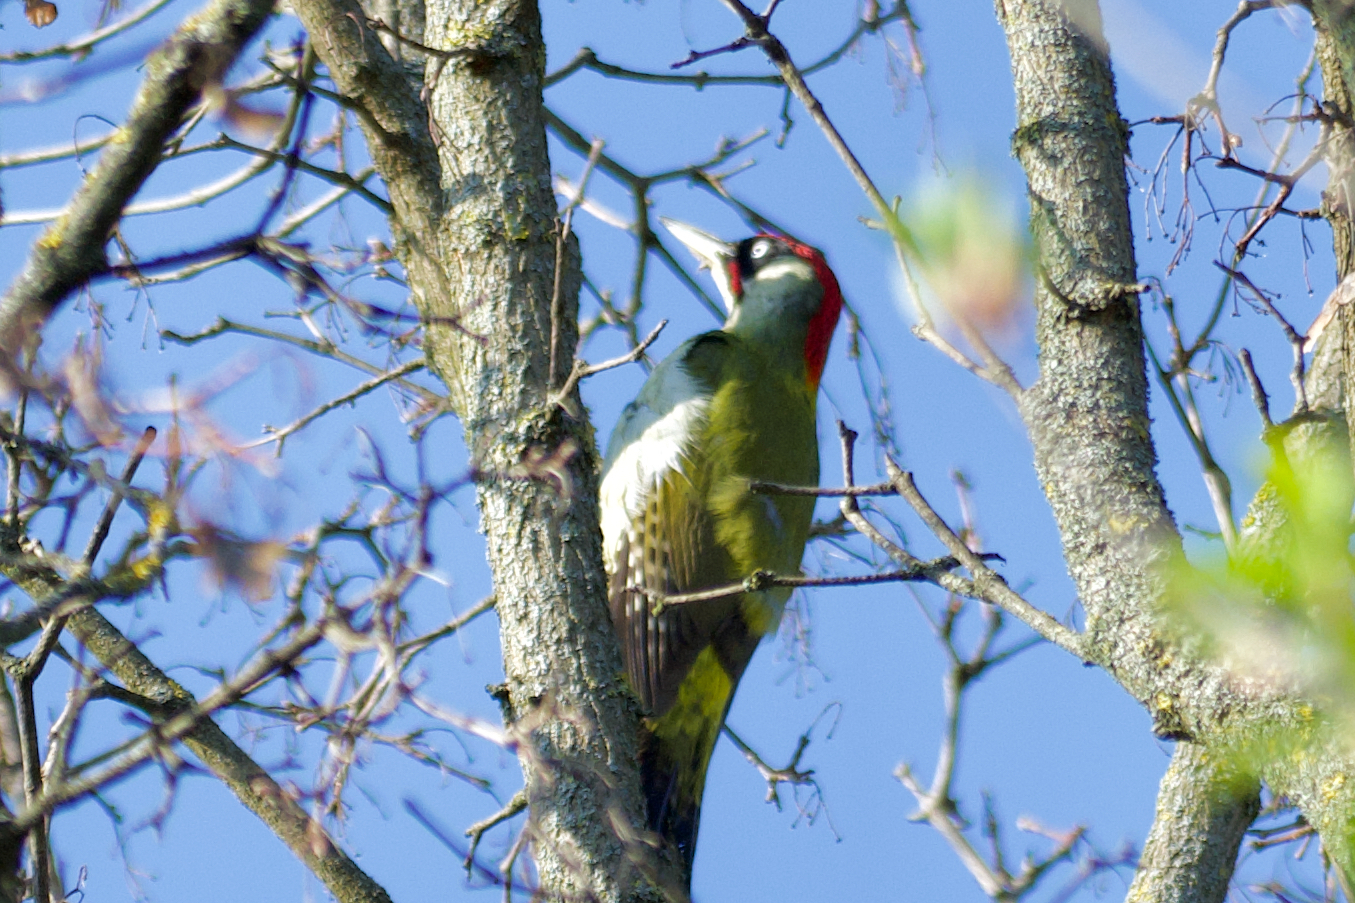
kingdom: Animalia
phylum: Chordata
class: Aves
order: Piciformes
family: Picidae
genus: Picus
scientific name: Picus viridis
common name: European green woodpecker
